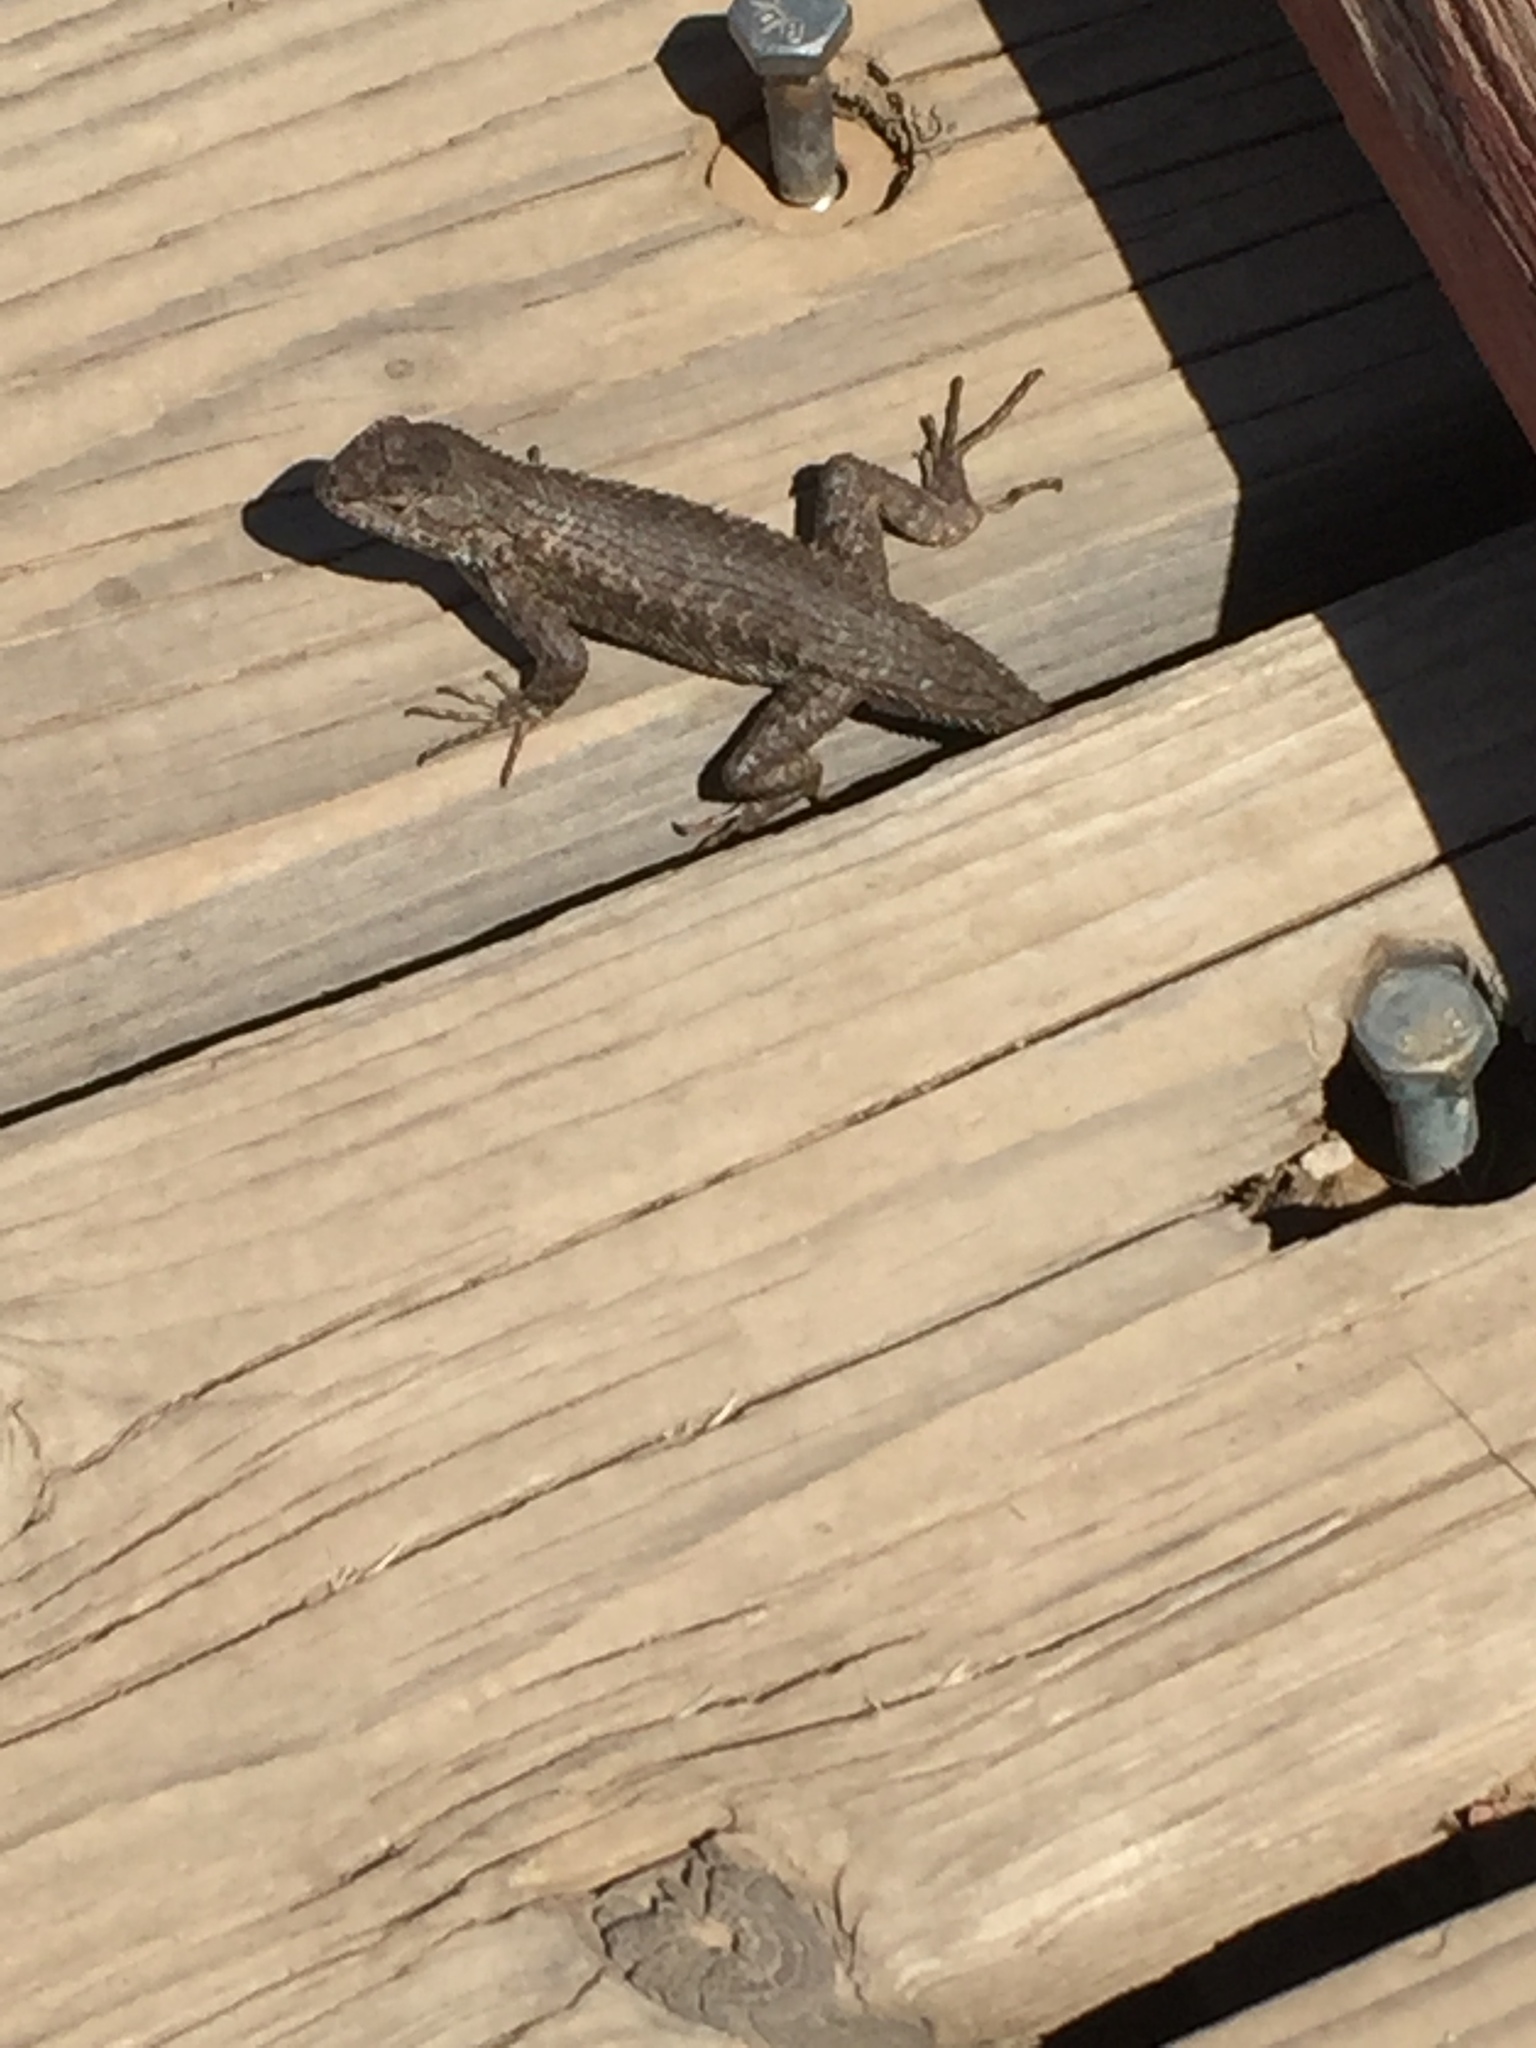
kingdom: Animalia
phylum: Chordata
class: Squamata
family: Phrynosomatidae
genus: Sceloporus
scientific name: Sceloporus occidentalis
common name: Western fence lizard
